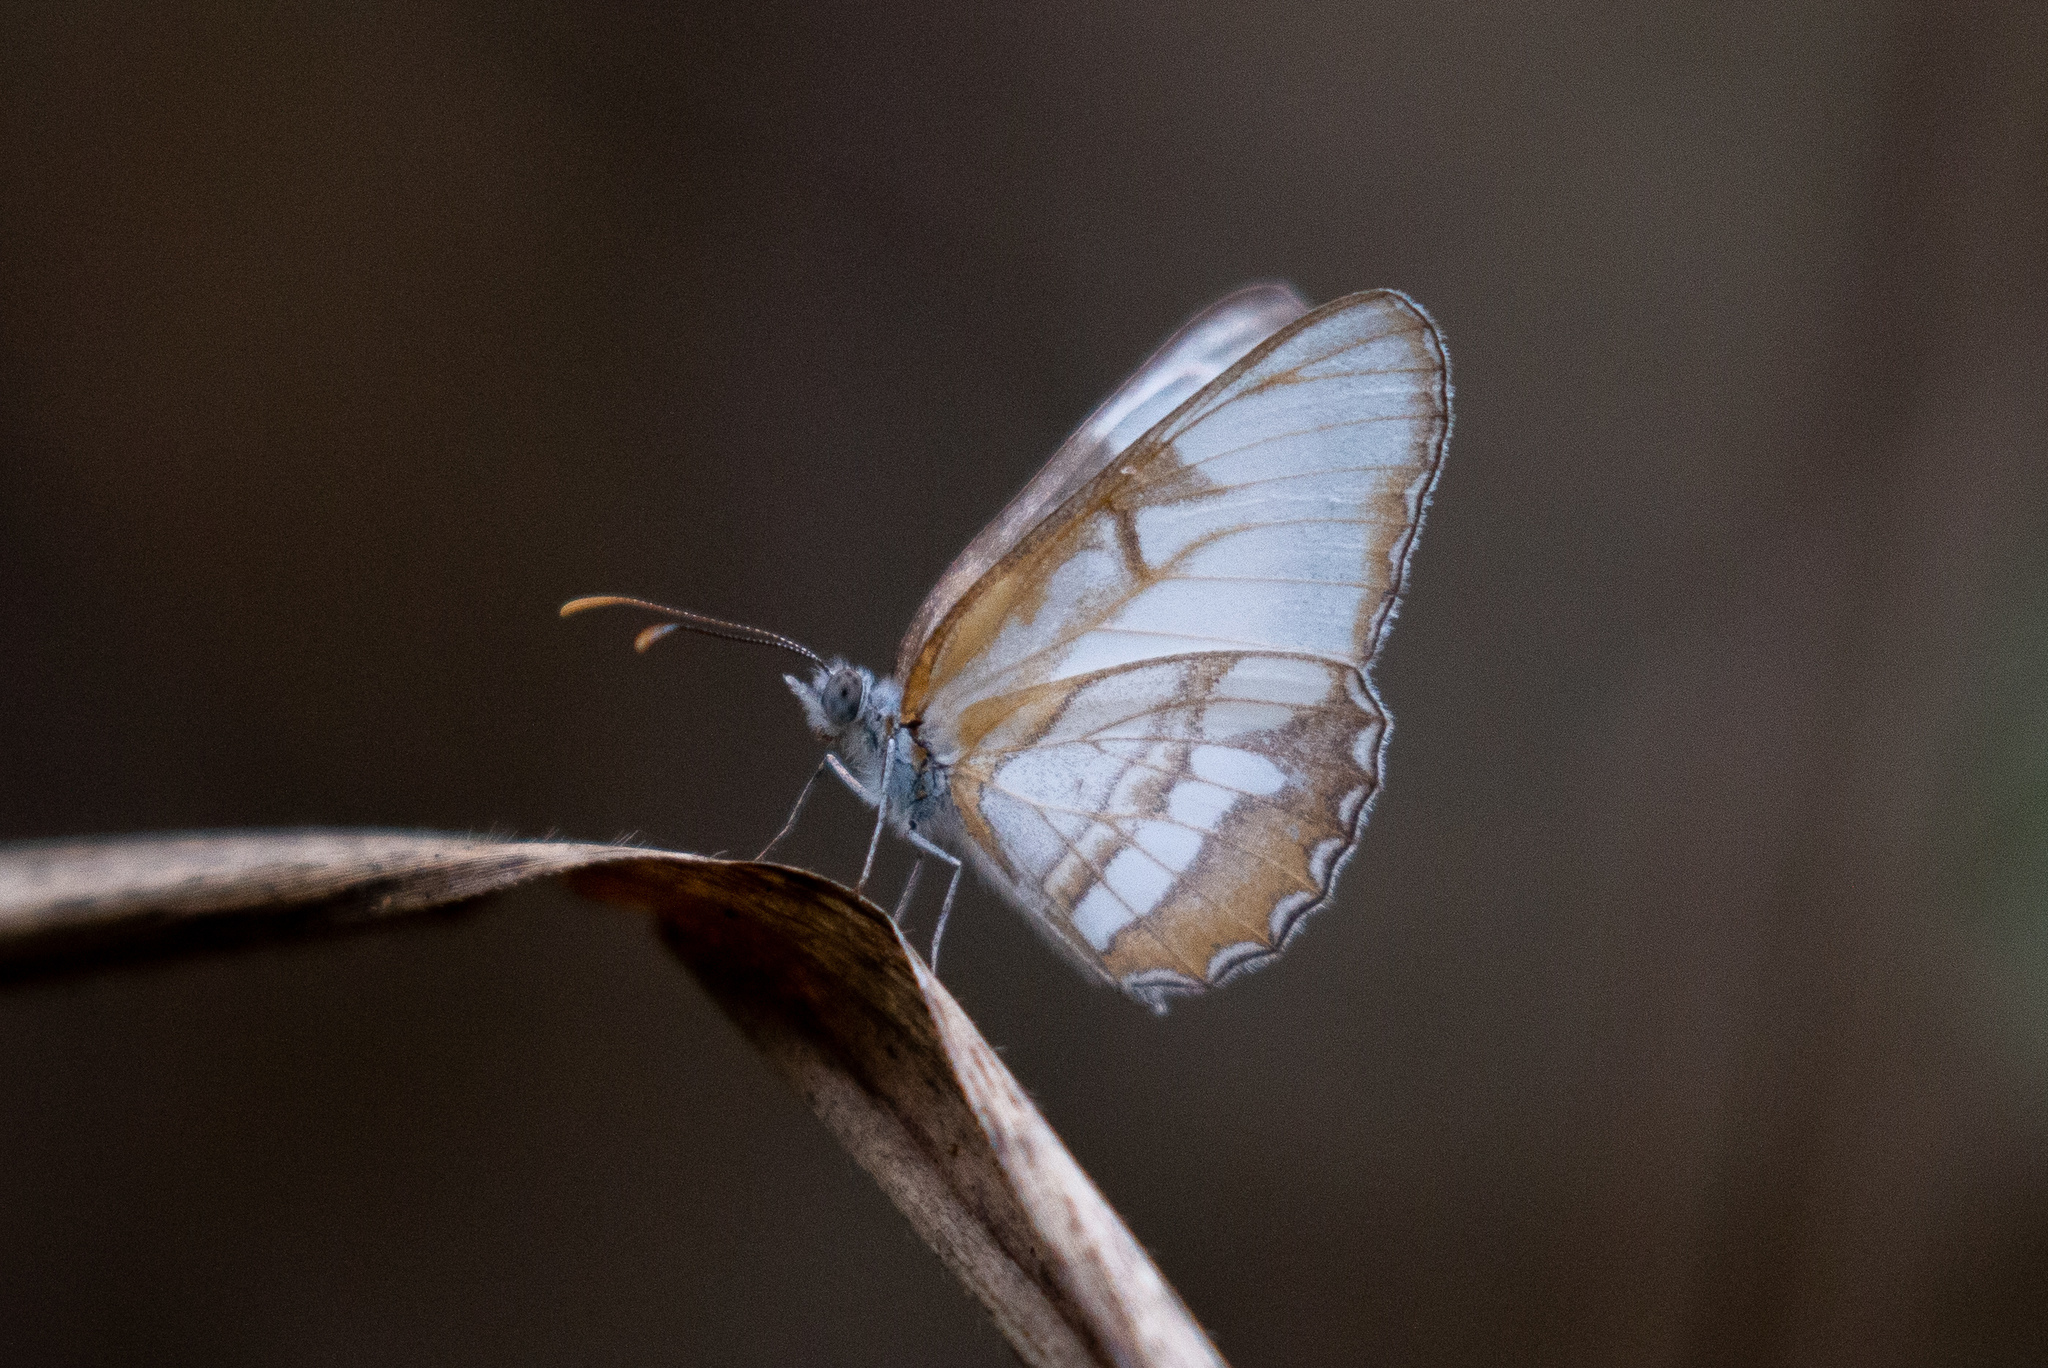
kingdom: Animalia
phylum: Arthropoda
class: Insecta
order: Lepidoptera
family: Nymphalidae
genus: Mestra
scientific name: Mestra hersilia
